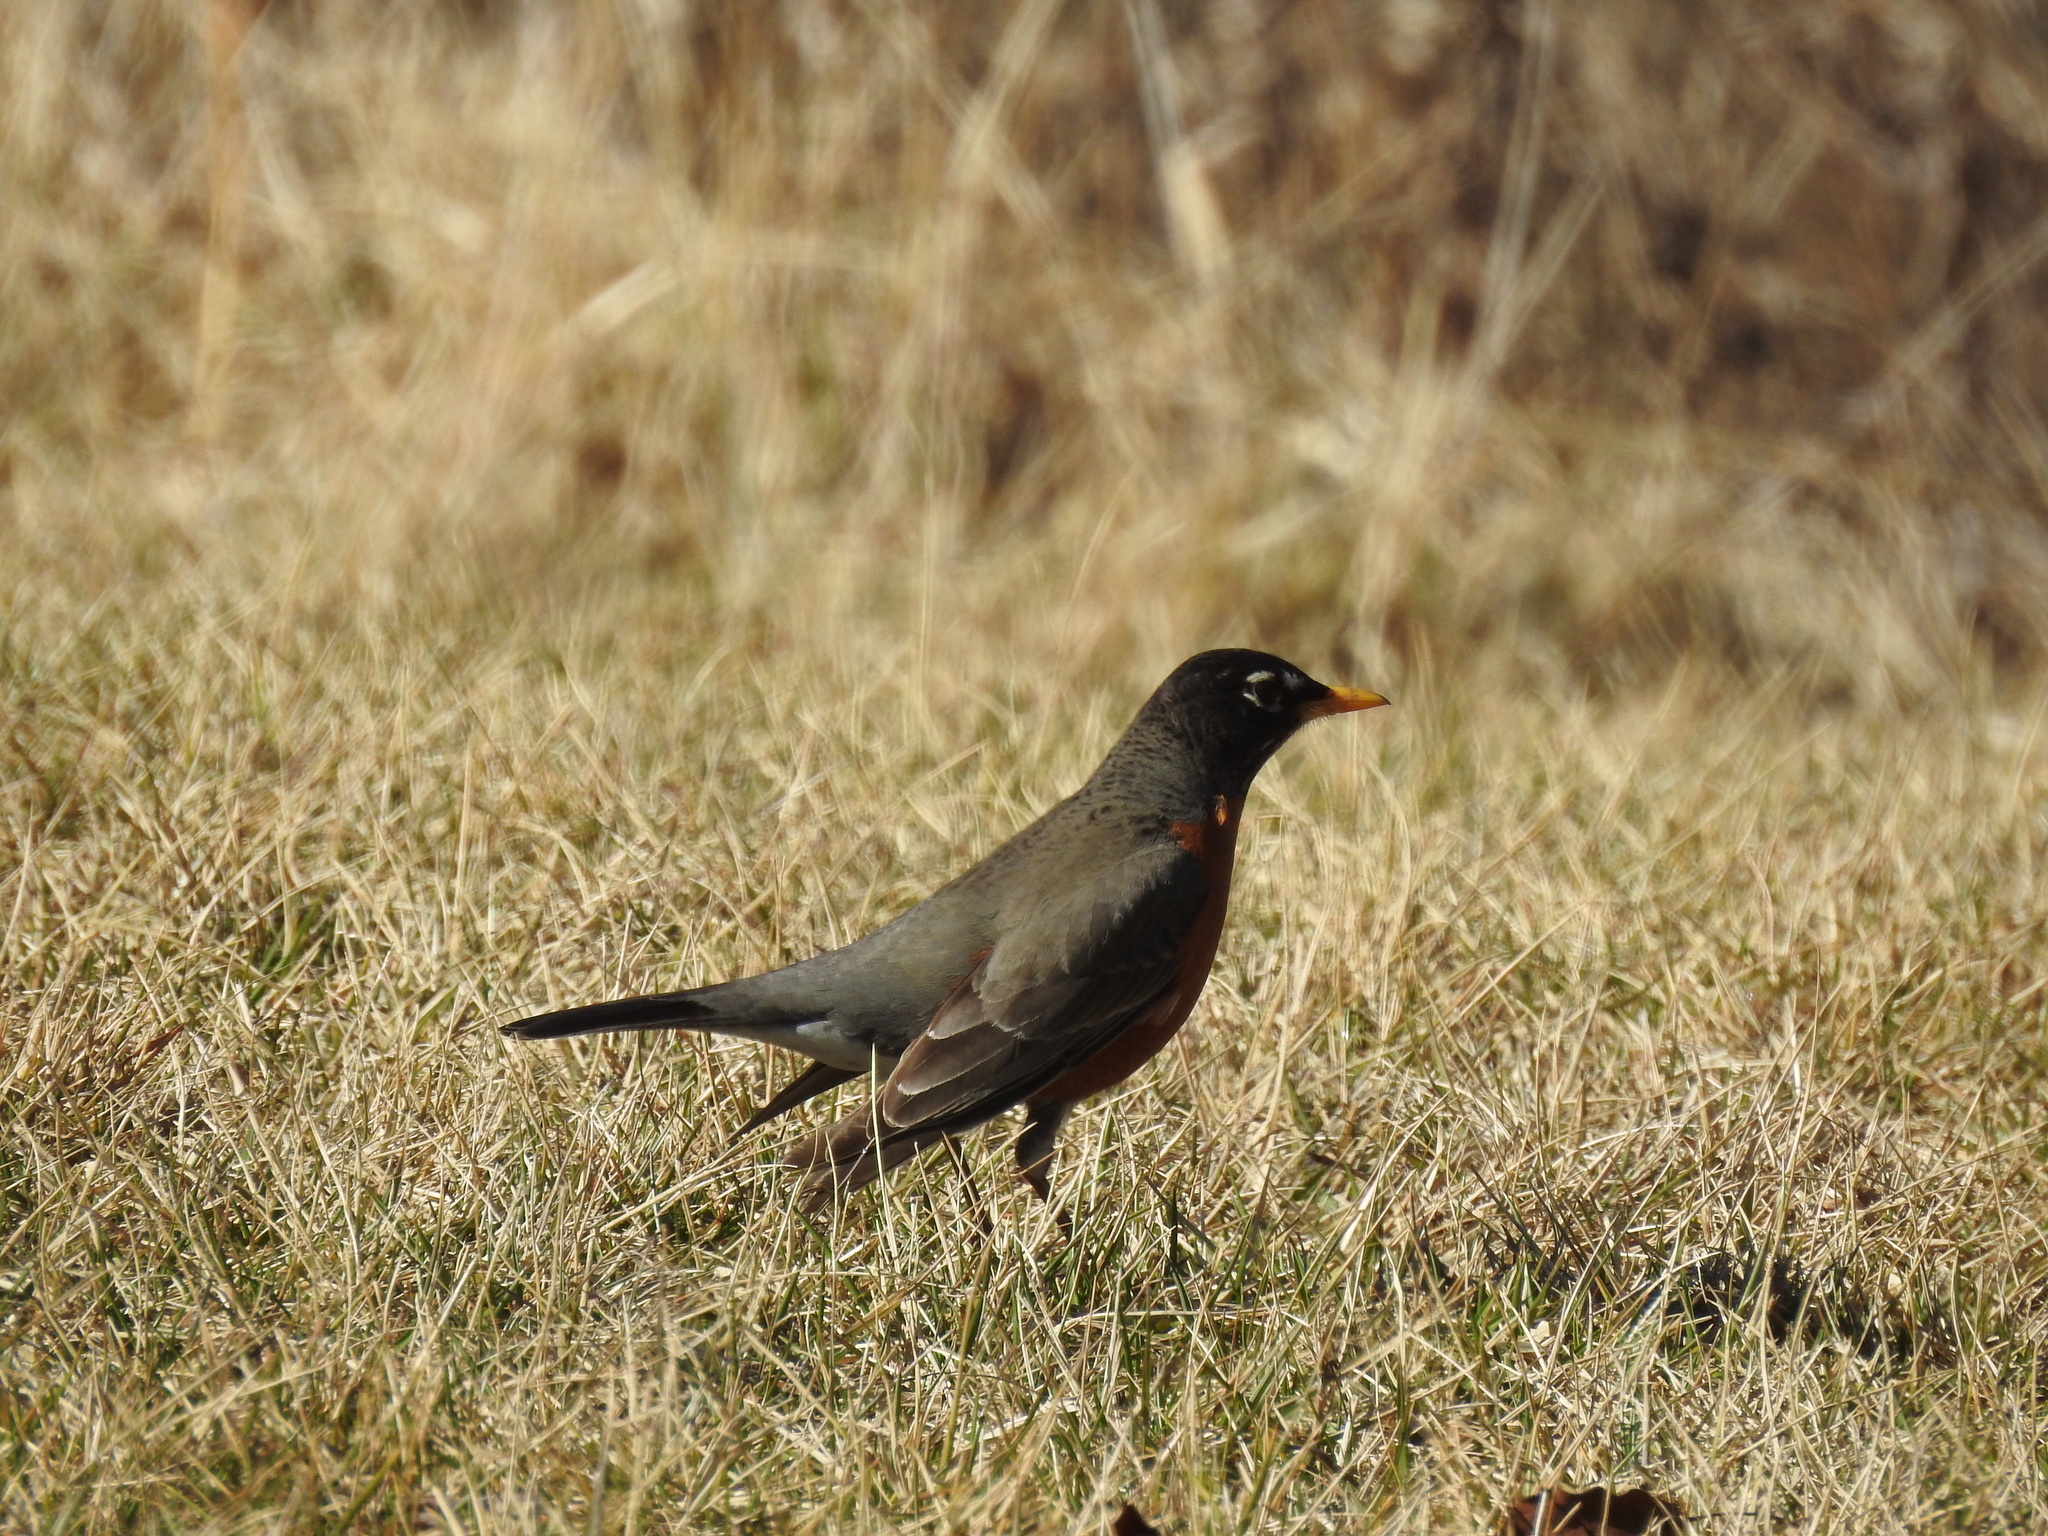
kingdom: Animalia
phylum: Chordata
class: Aves
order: Passeriformes
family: Turdidae
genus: Turdus
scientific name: Turdus migratorius
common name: American robin
